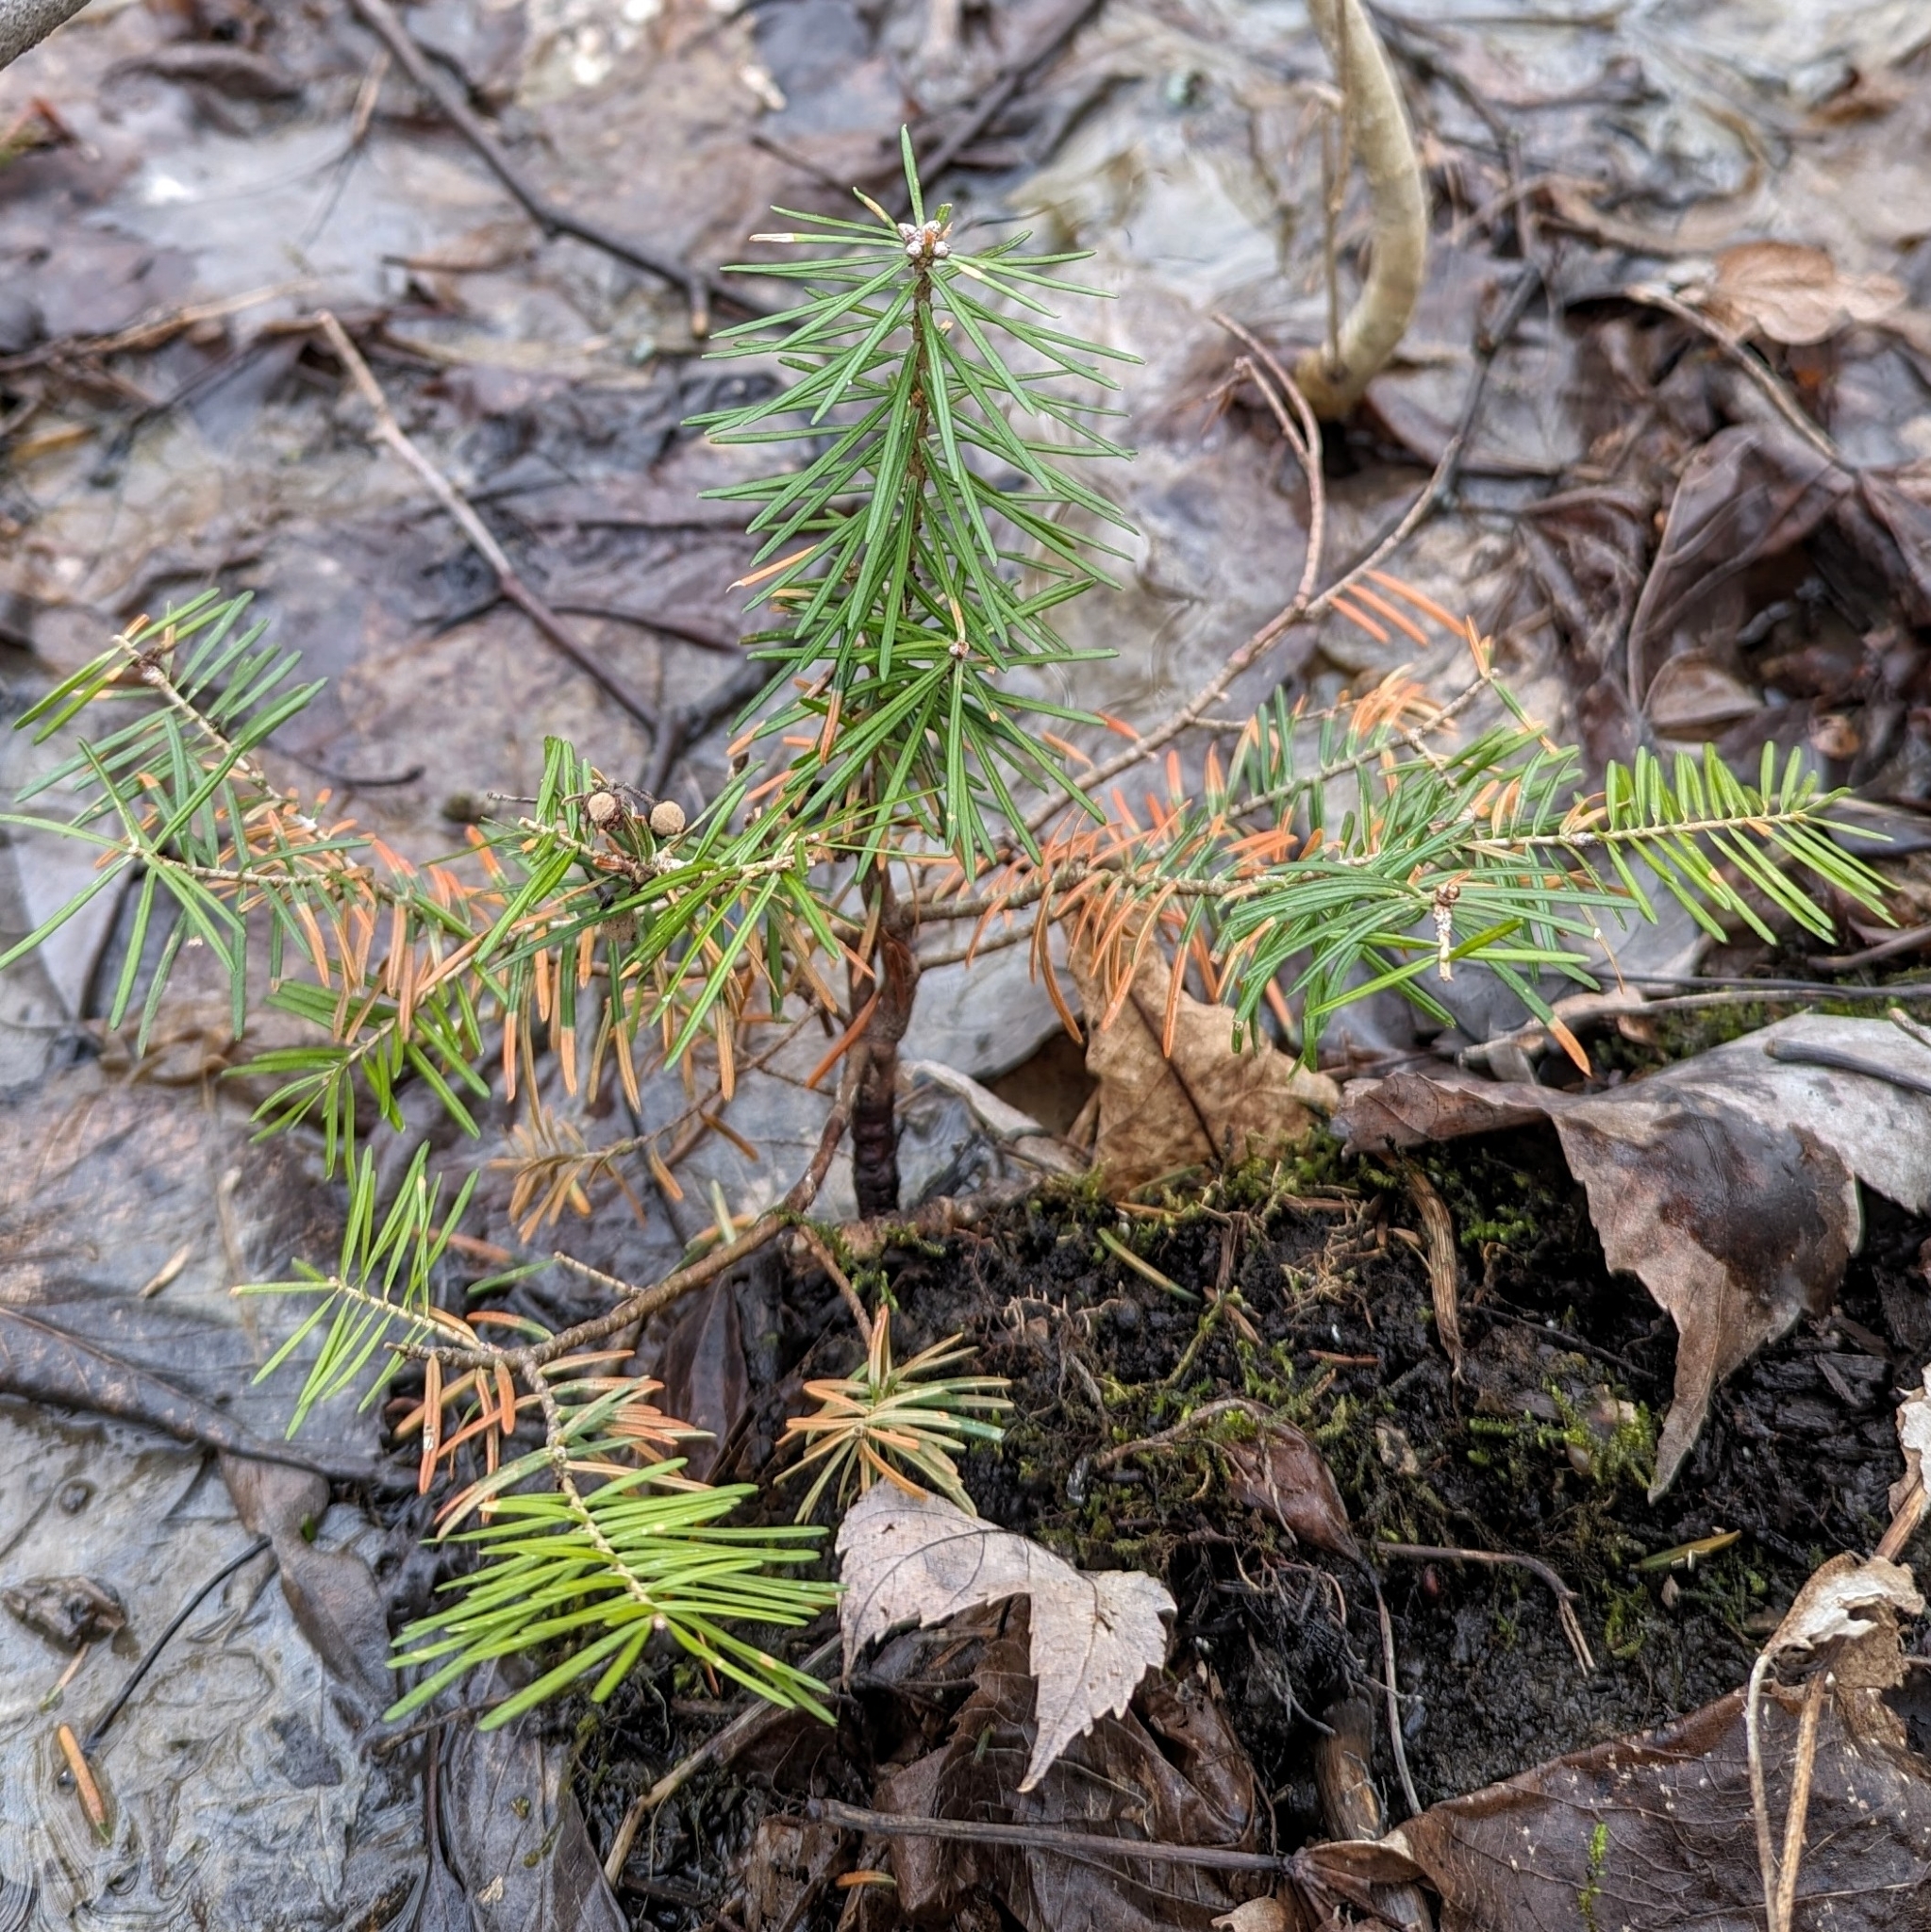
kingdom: Plantae
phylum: Tracheophyta
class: Pinopsida
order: Pinales
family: Pinaceae
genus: Abies
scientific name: Abies balsamea
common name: Balsam fir
